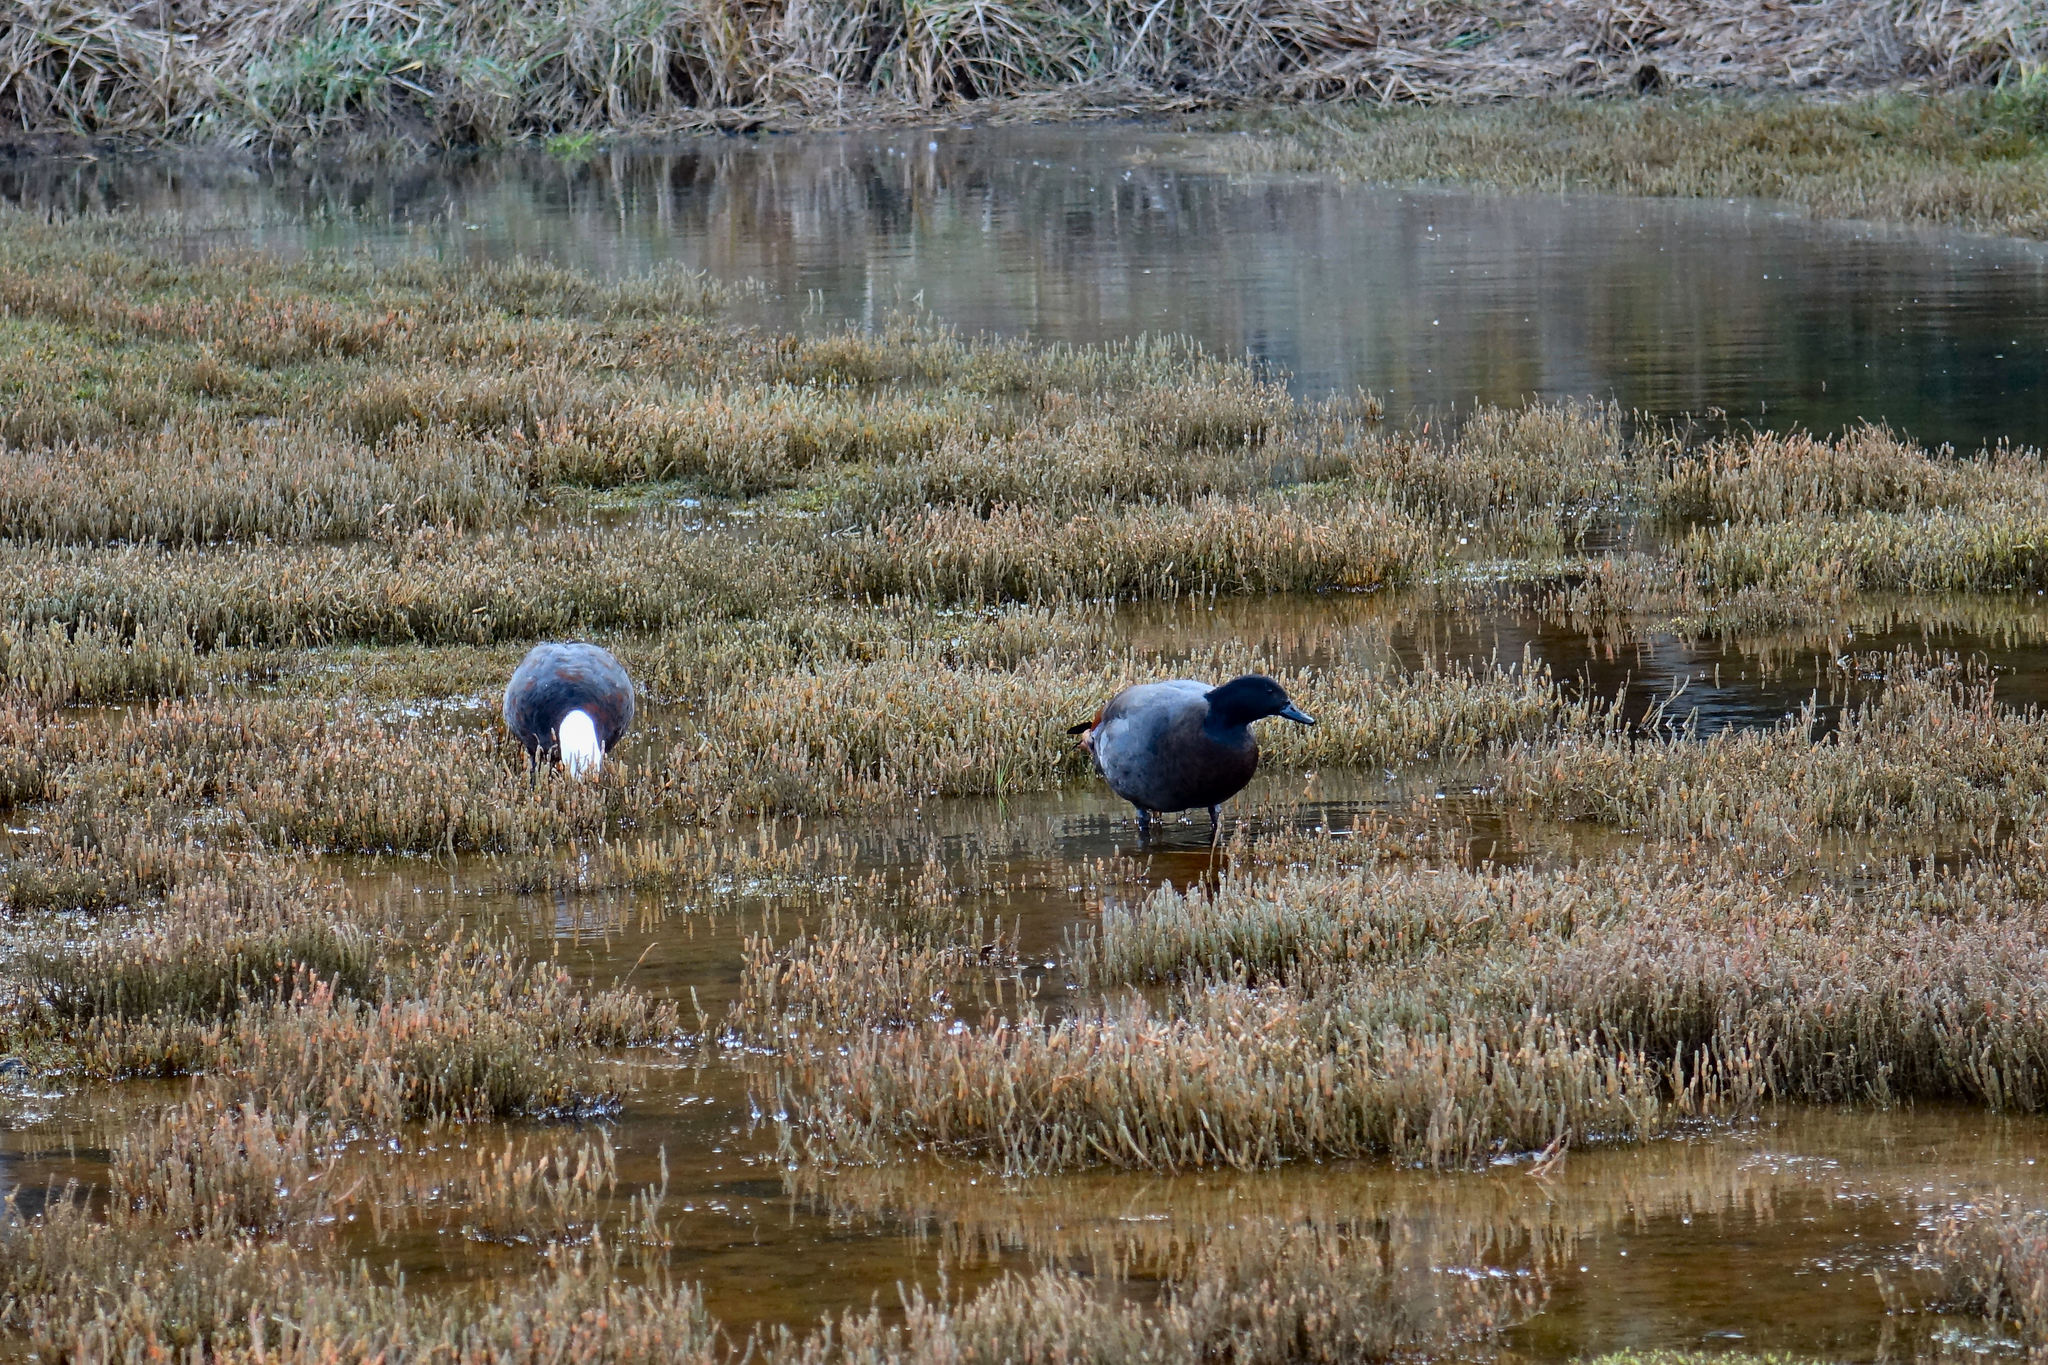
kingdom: Animalia
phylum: Chordata
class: Aves
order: Anseriformes
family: Anatidae
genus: Tadorna
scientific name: Tadorna variegata
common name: Paradise shelduck
